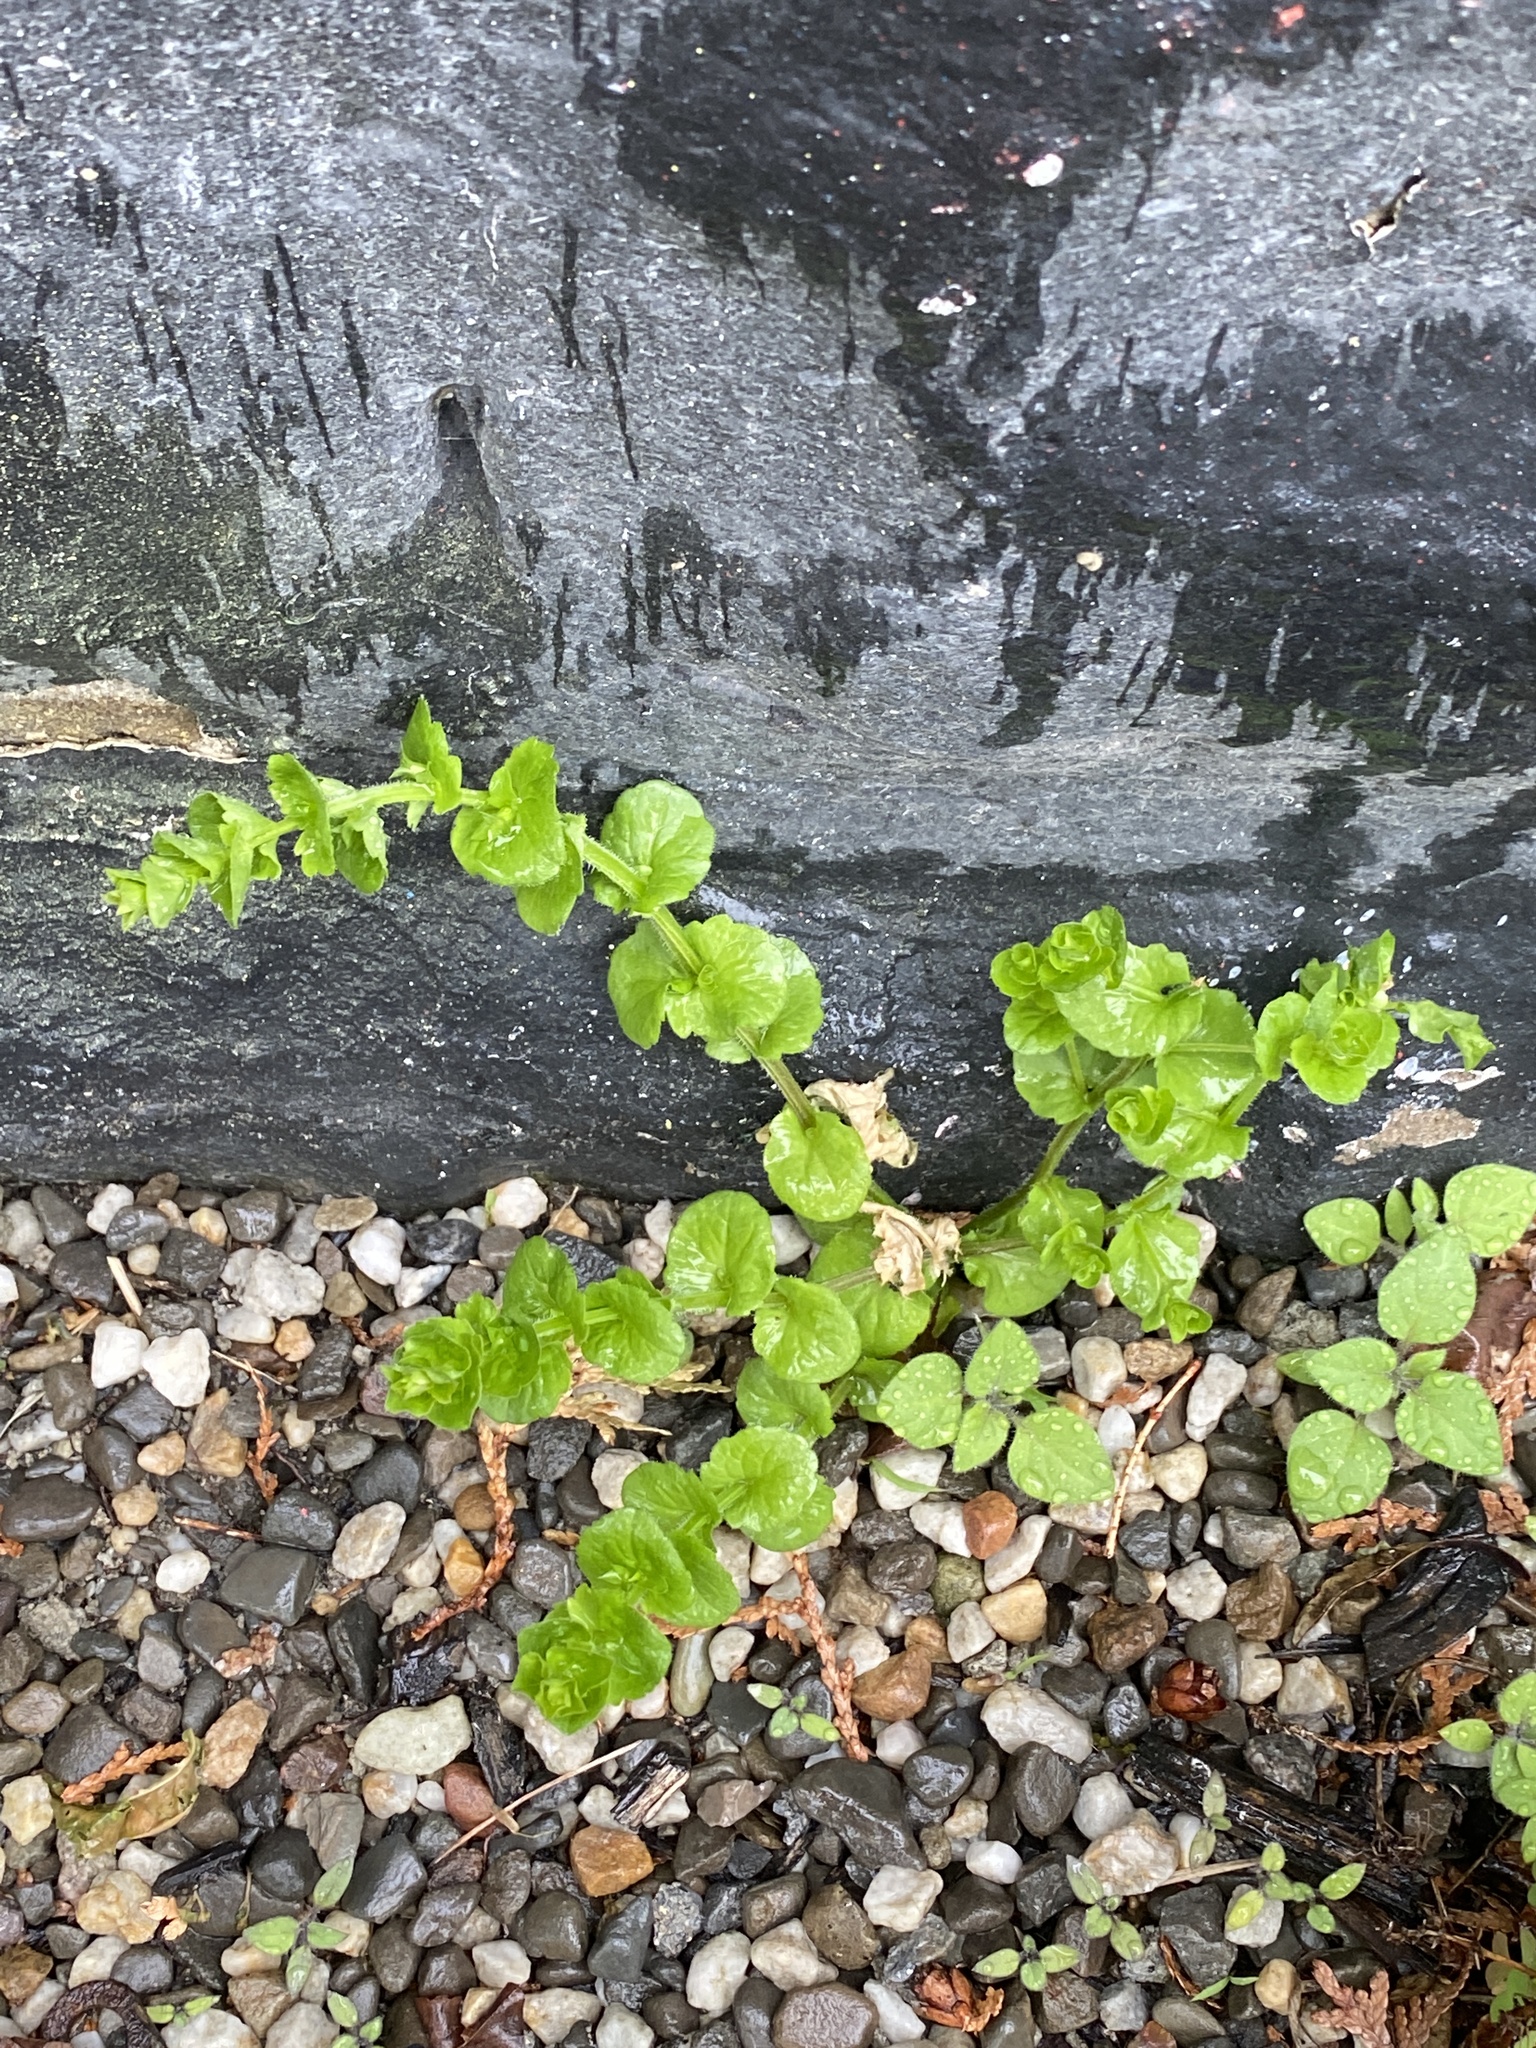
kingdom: Plantae
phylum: Tracheophyta
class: Magnoliopsida
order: Asterales
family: Campanulaceae
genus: Triodanis
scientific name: Triodanis perfoliata
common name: Clasping venus' looking-glass
